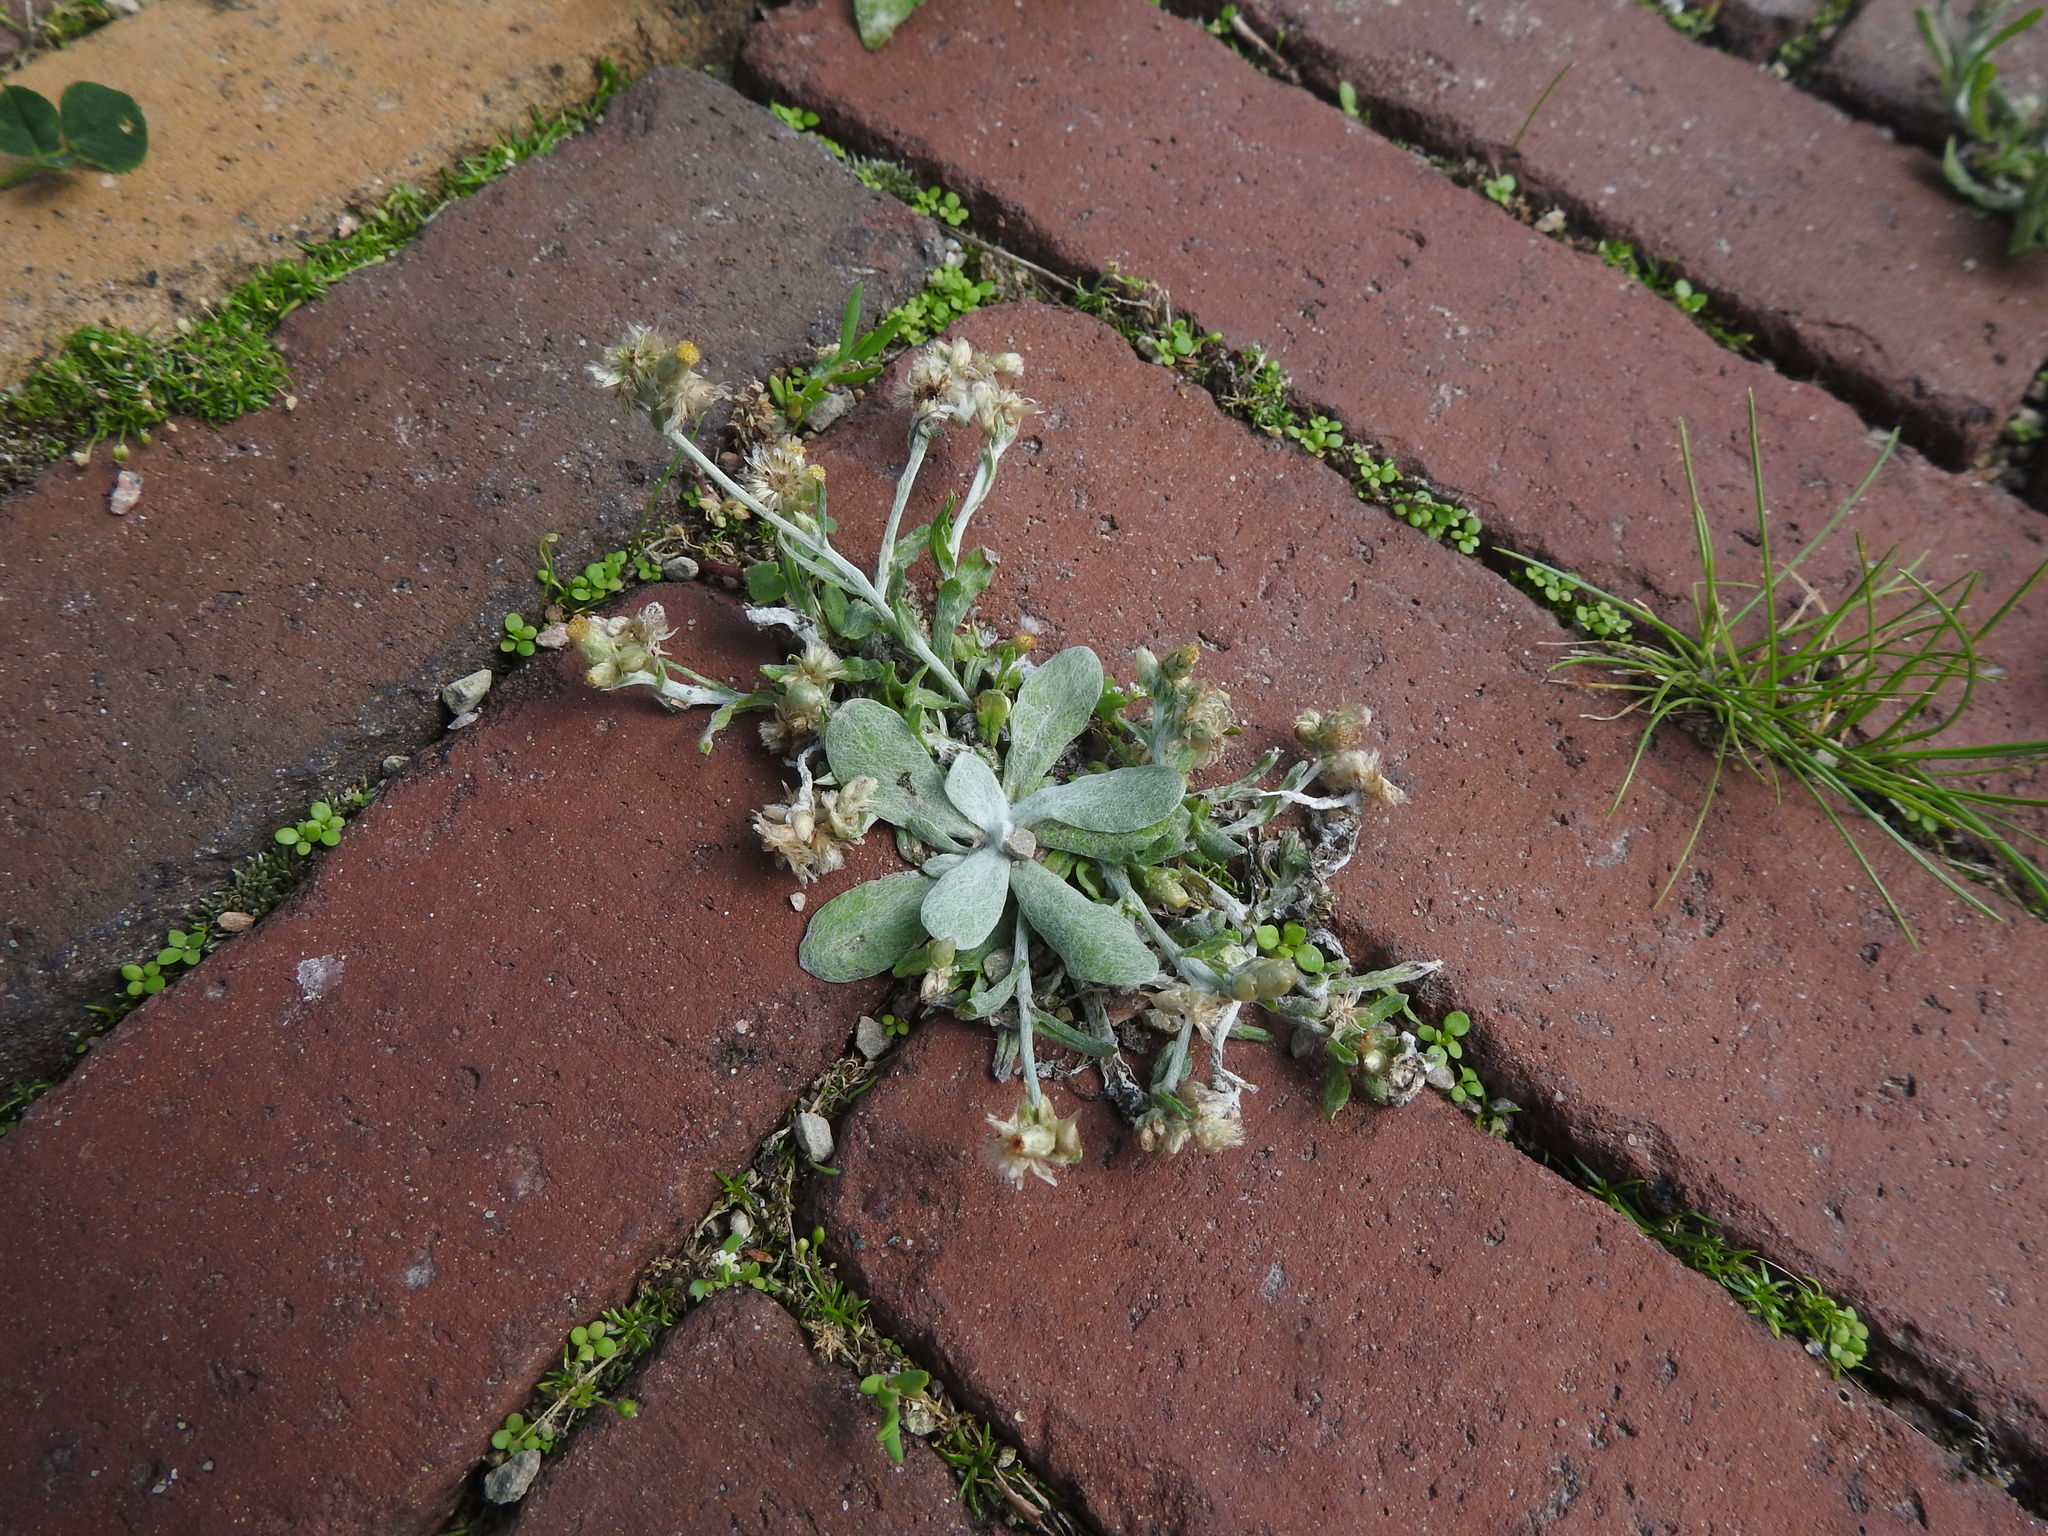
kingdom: Plantae
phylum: Tracheophyta
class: Magnoliopsida
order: Asterales
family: Asteraceae
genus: Helichrysum
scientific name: Helichrysum luteoalbum
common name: Daisy
